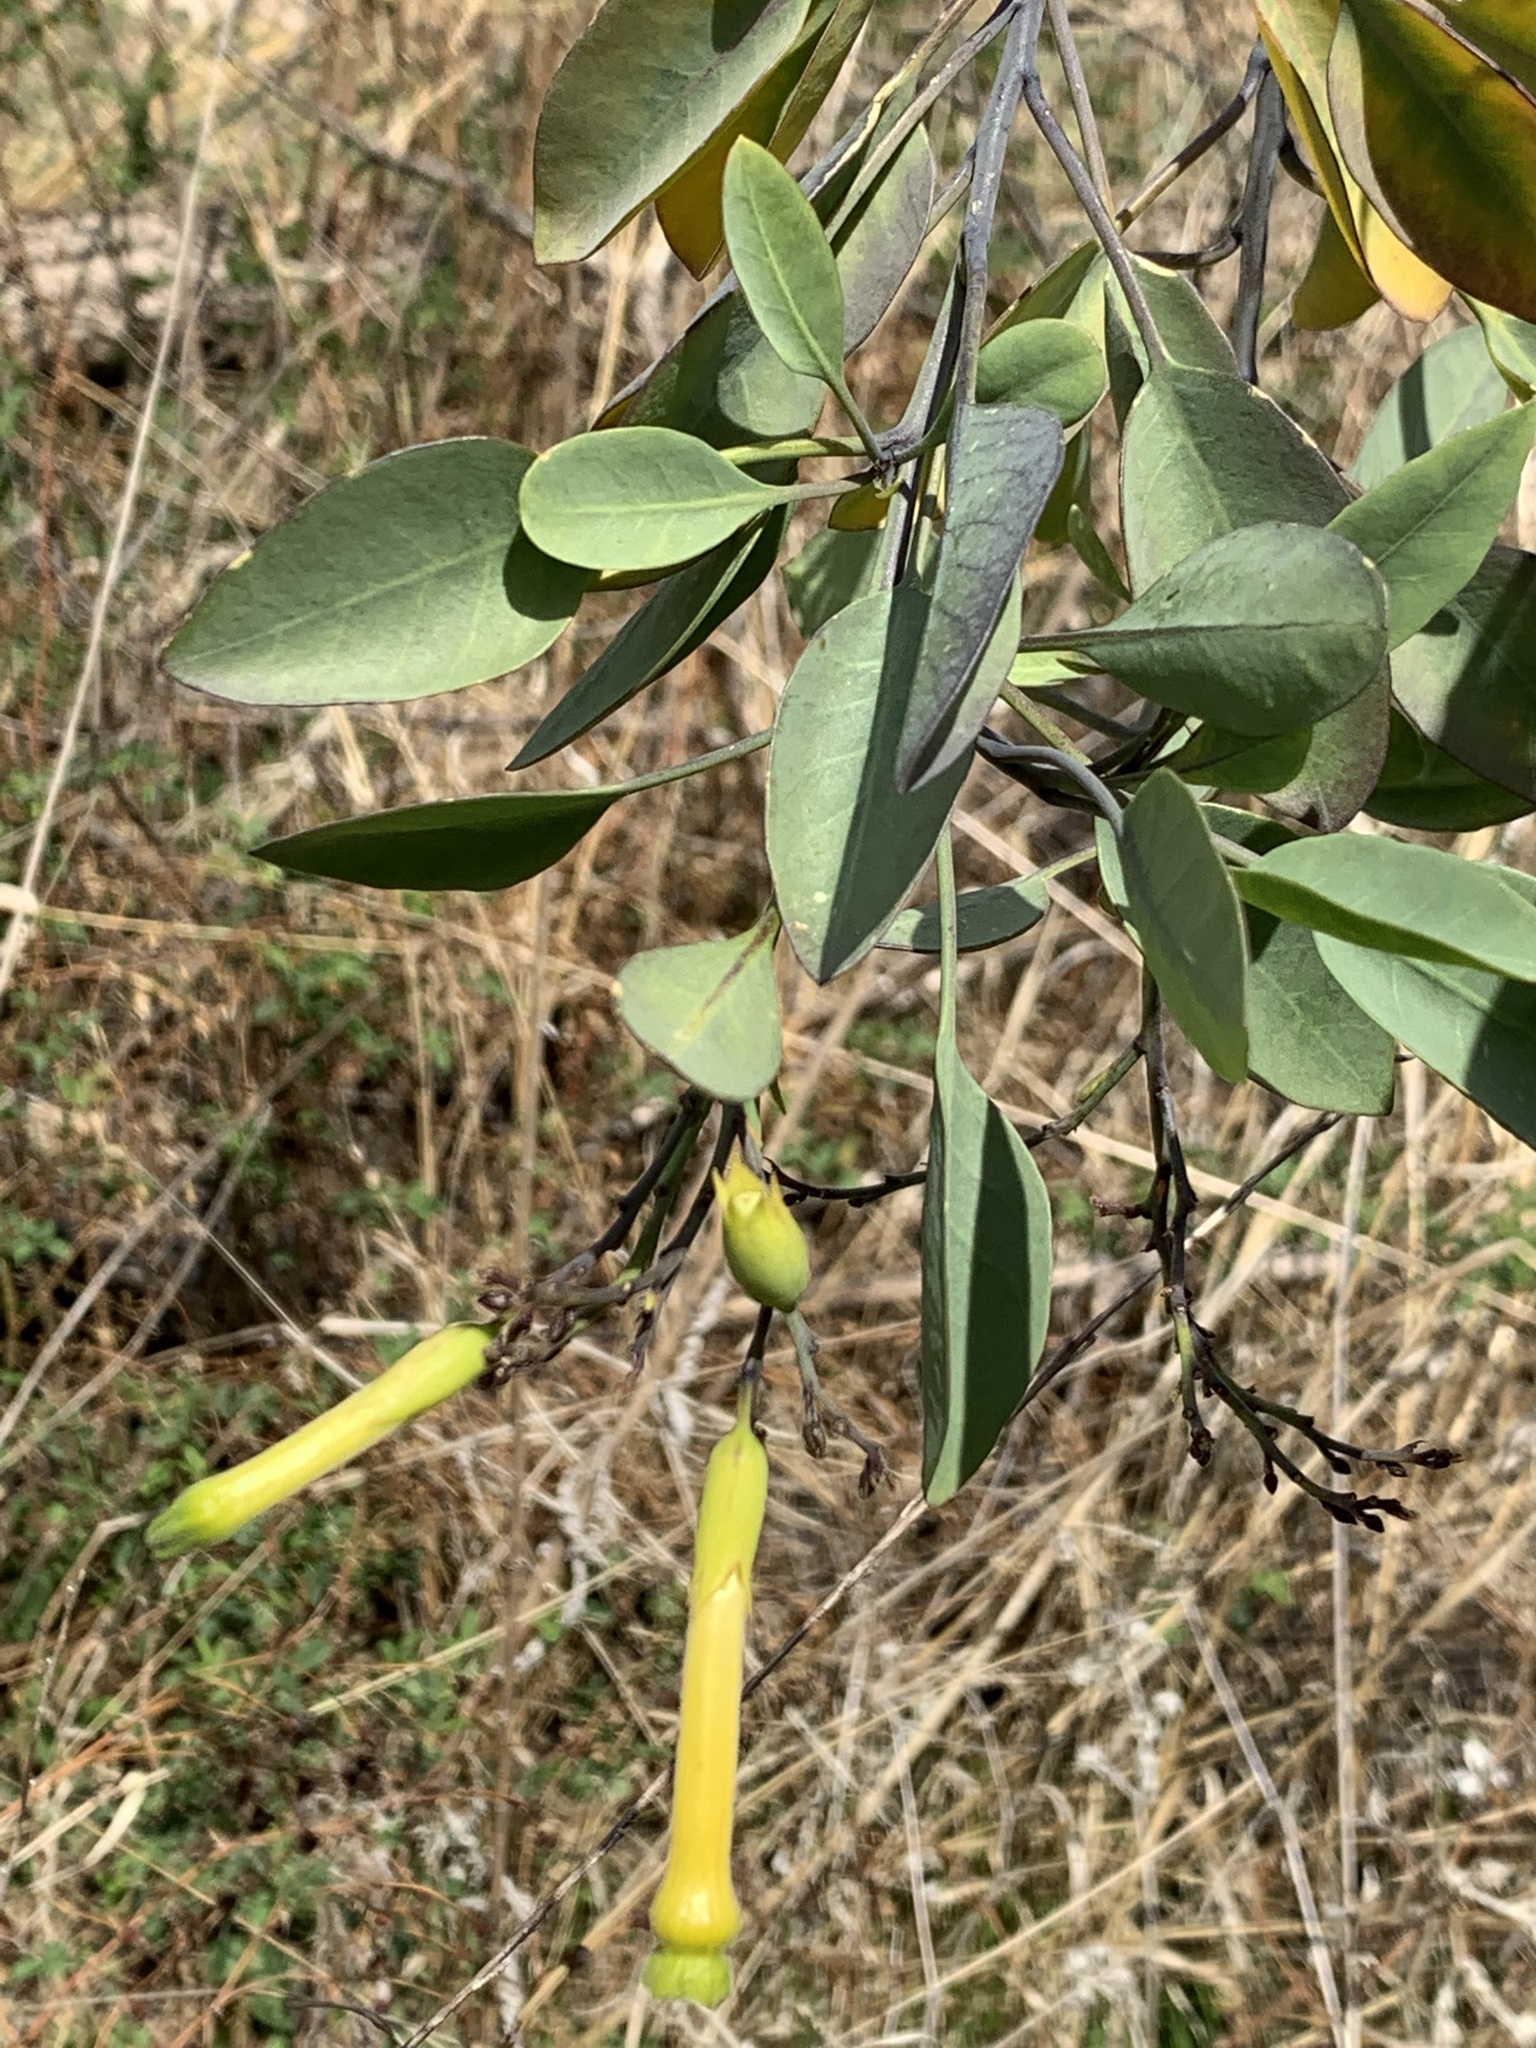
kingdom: Plantae
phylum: Tracheophyta
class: Magnoliopsida
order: Solanales
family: Solanaceae
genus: Nicotiana
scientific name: Nicotiana glauca
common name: Tree tobacco
